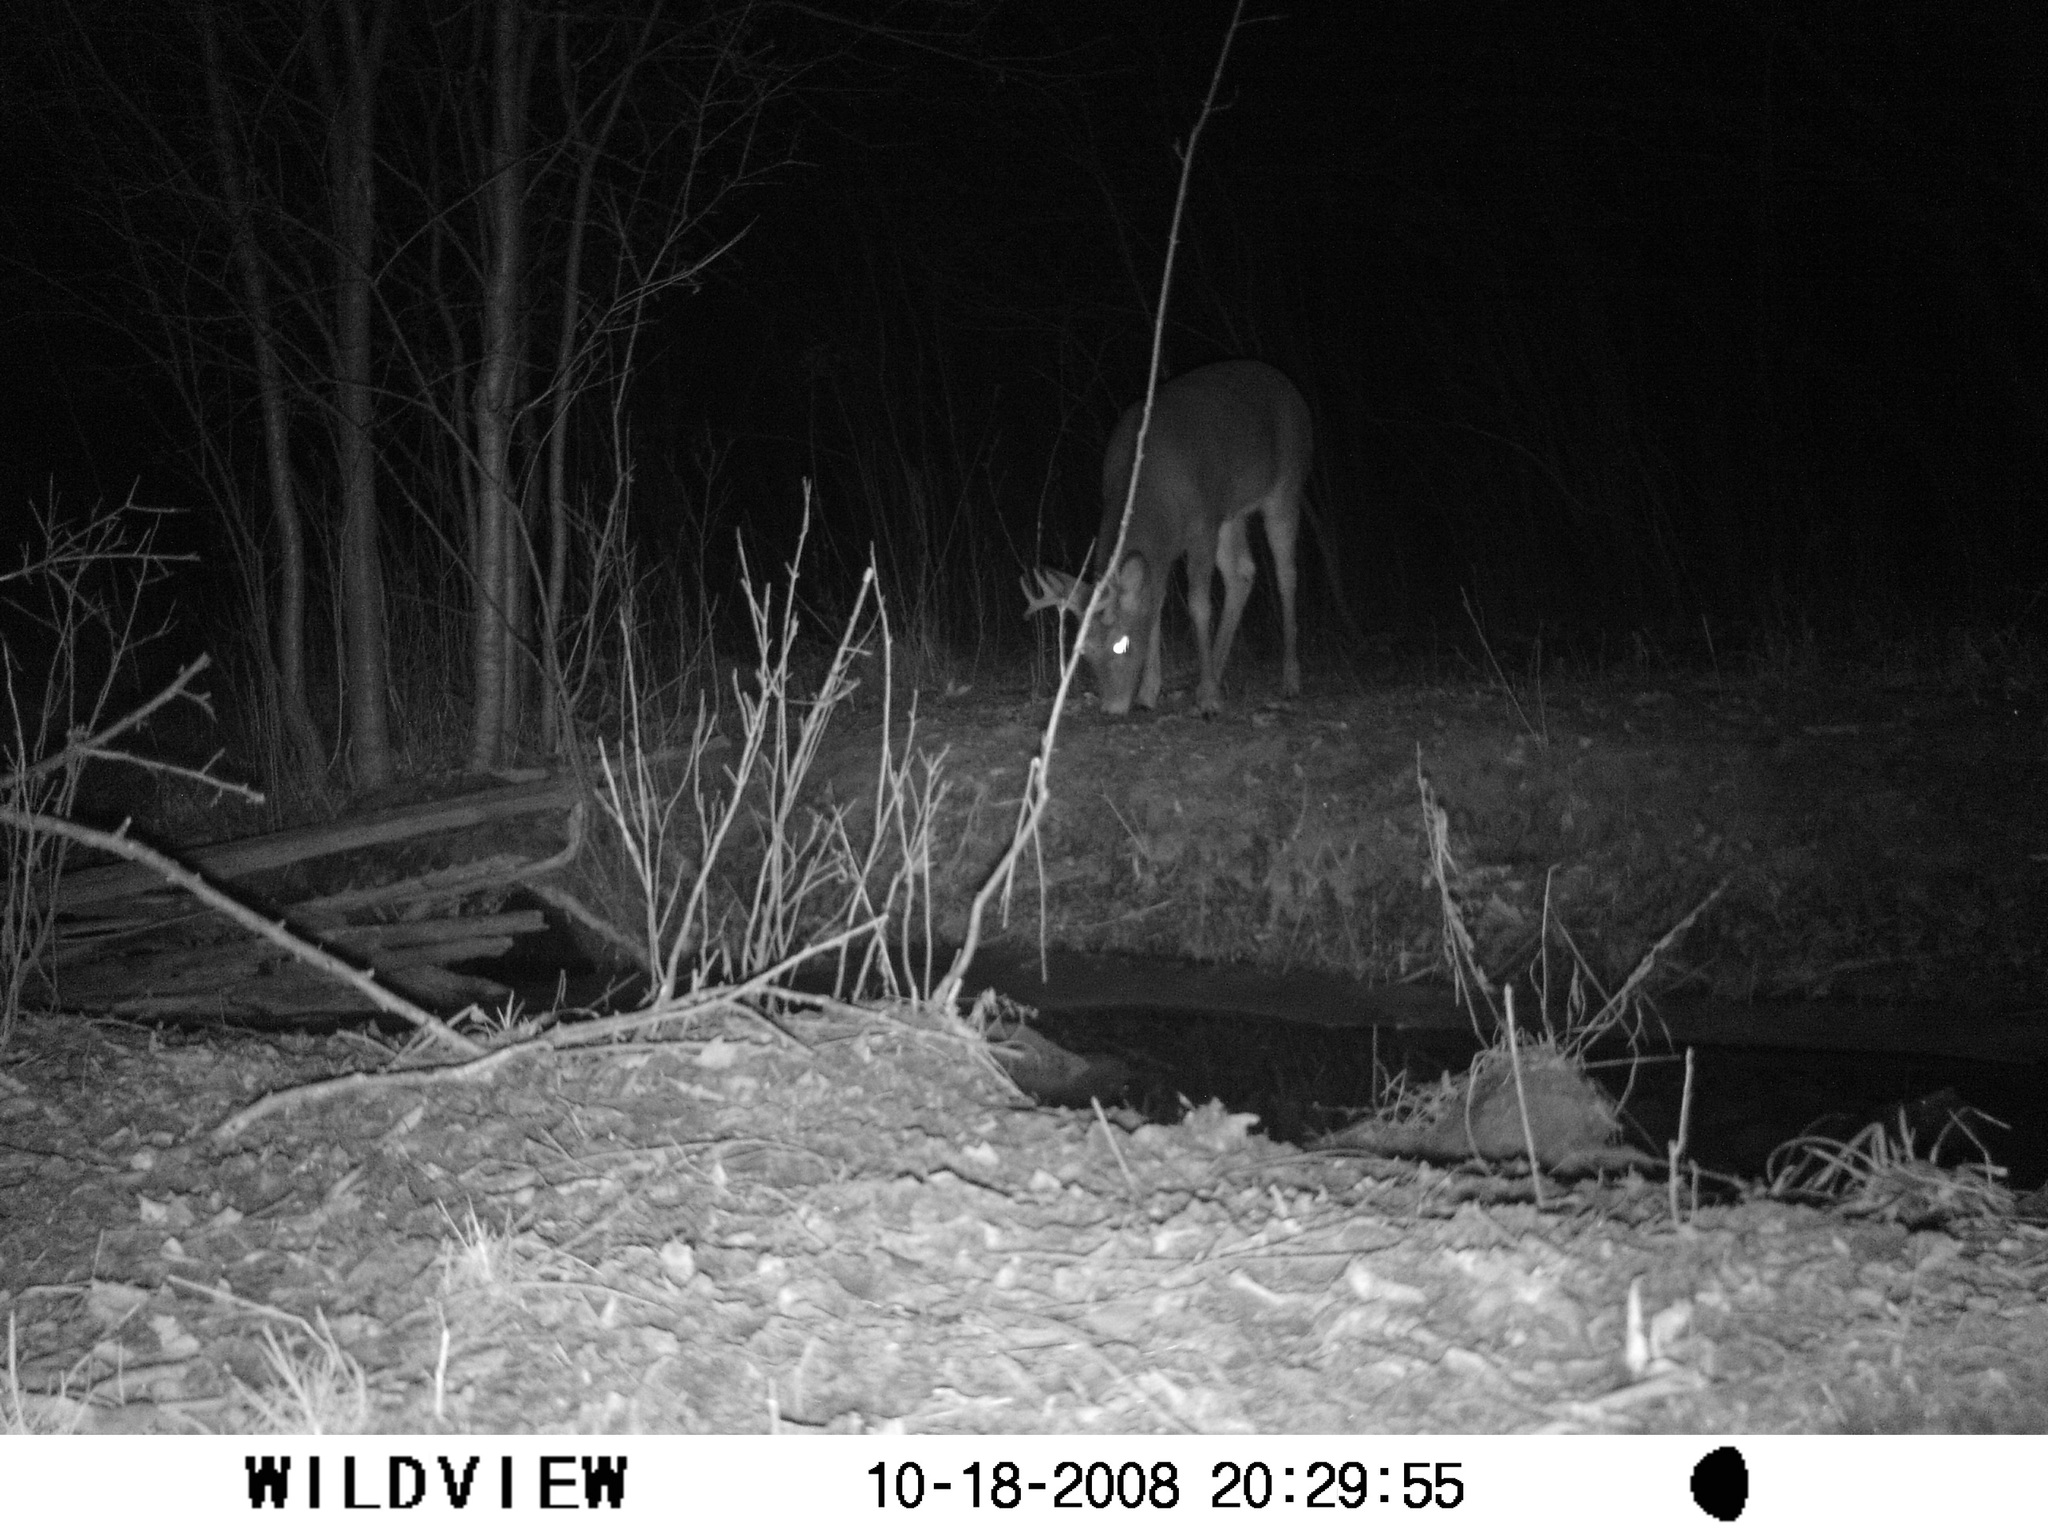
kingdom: Animalia
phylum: Chordata
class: Mammalia
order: Artiodactyla
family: Cervidae
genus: Odocoileus
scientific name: Odocoileus virginianus
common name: White-tailed deer
